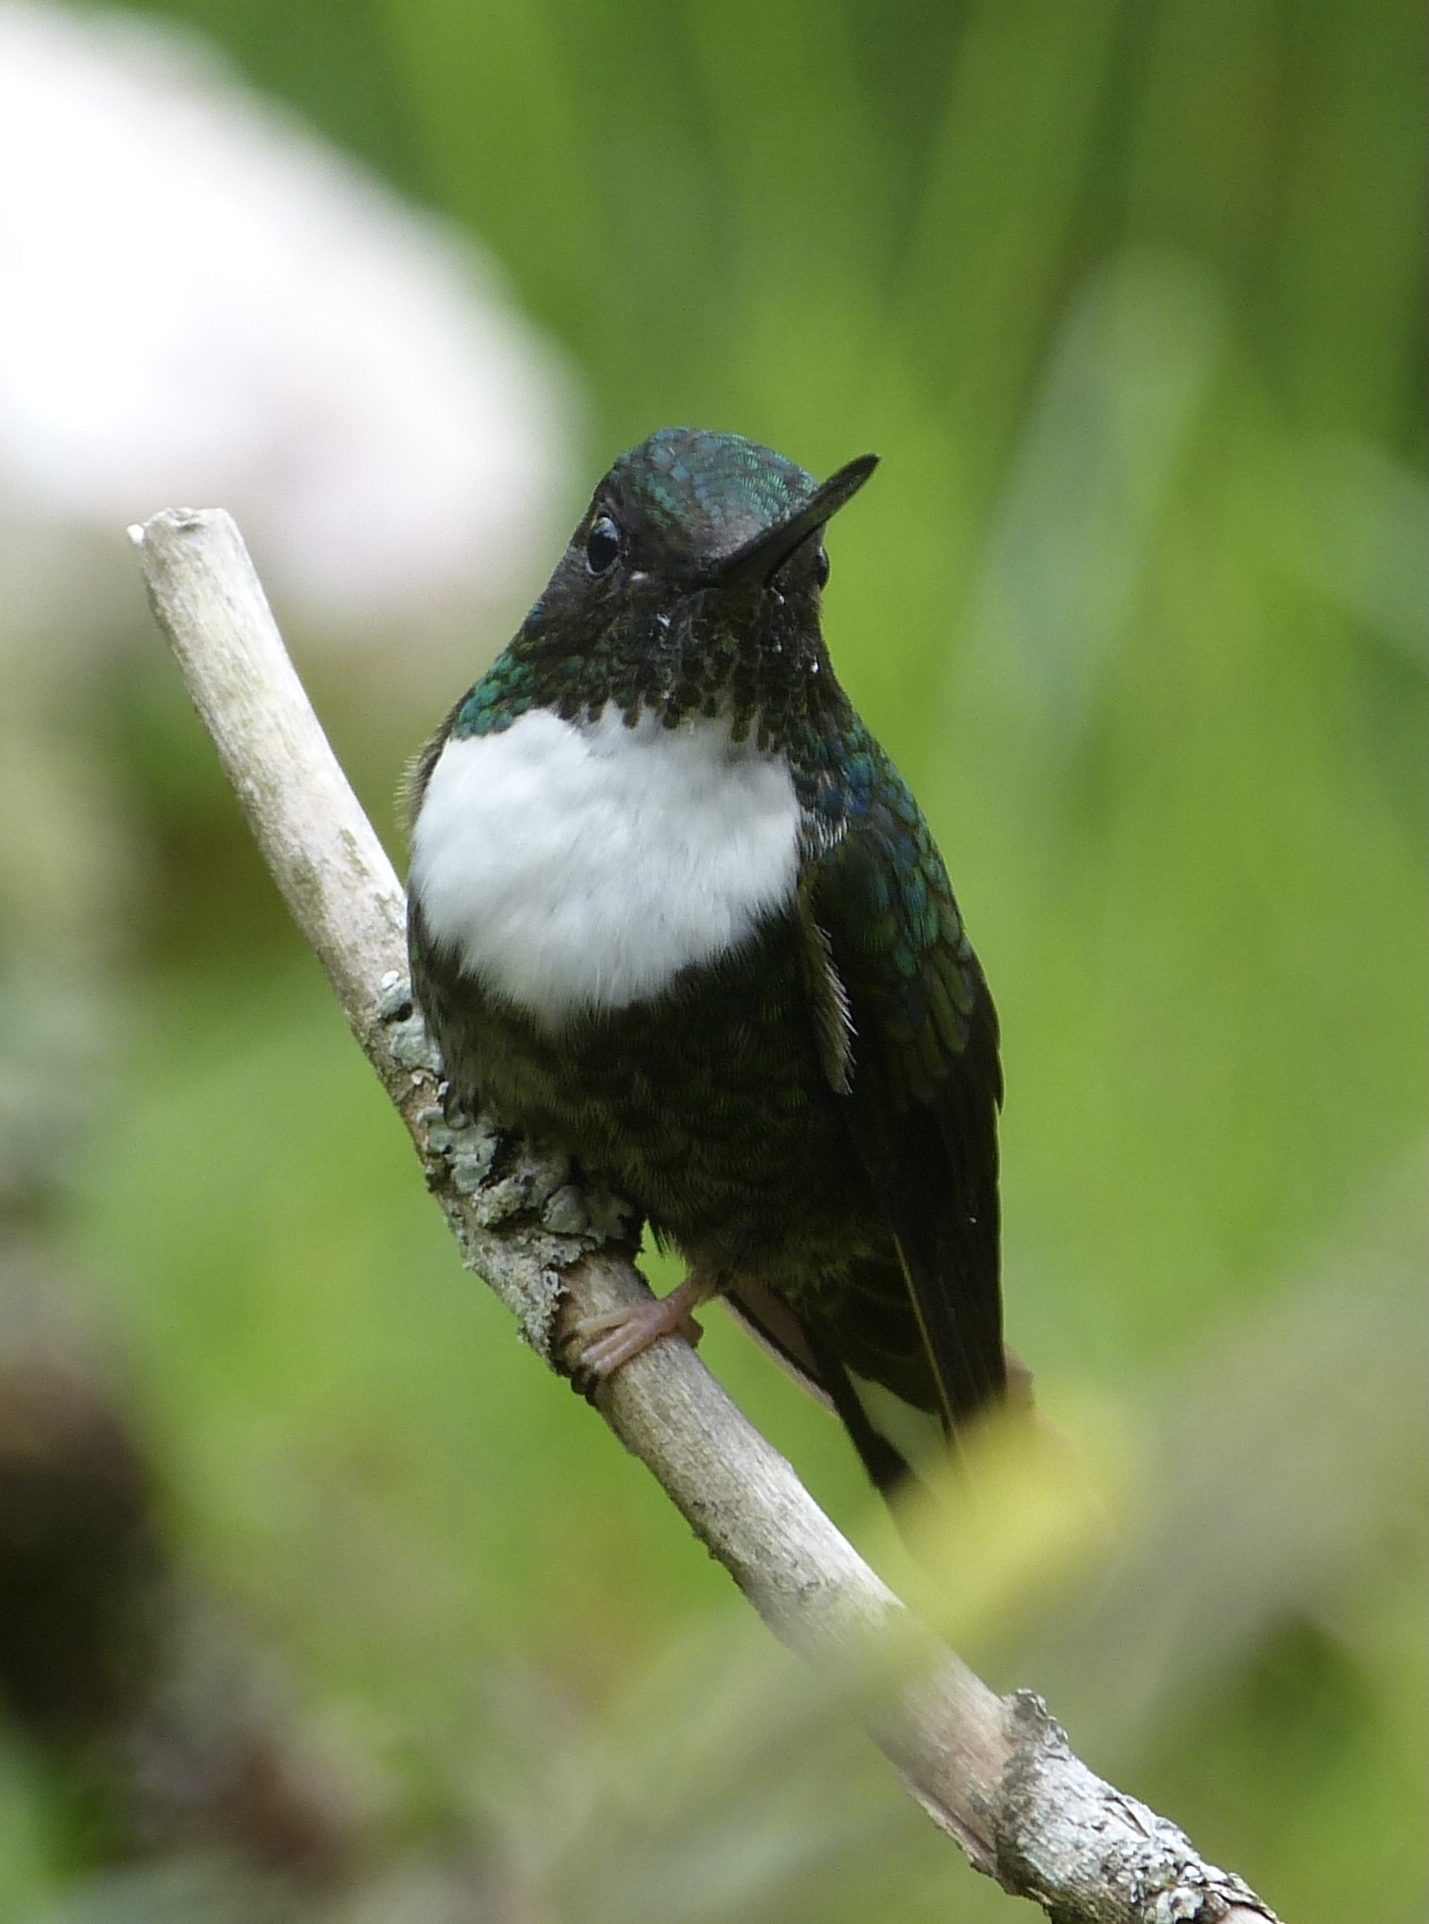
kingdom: Animalia
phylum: Chordata
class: Aves
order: Apodiformes
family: Trochilidae
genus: Coeligena
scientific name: Coeligena torquata
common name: Collared inca
